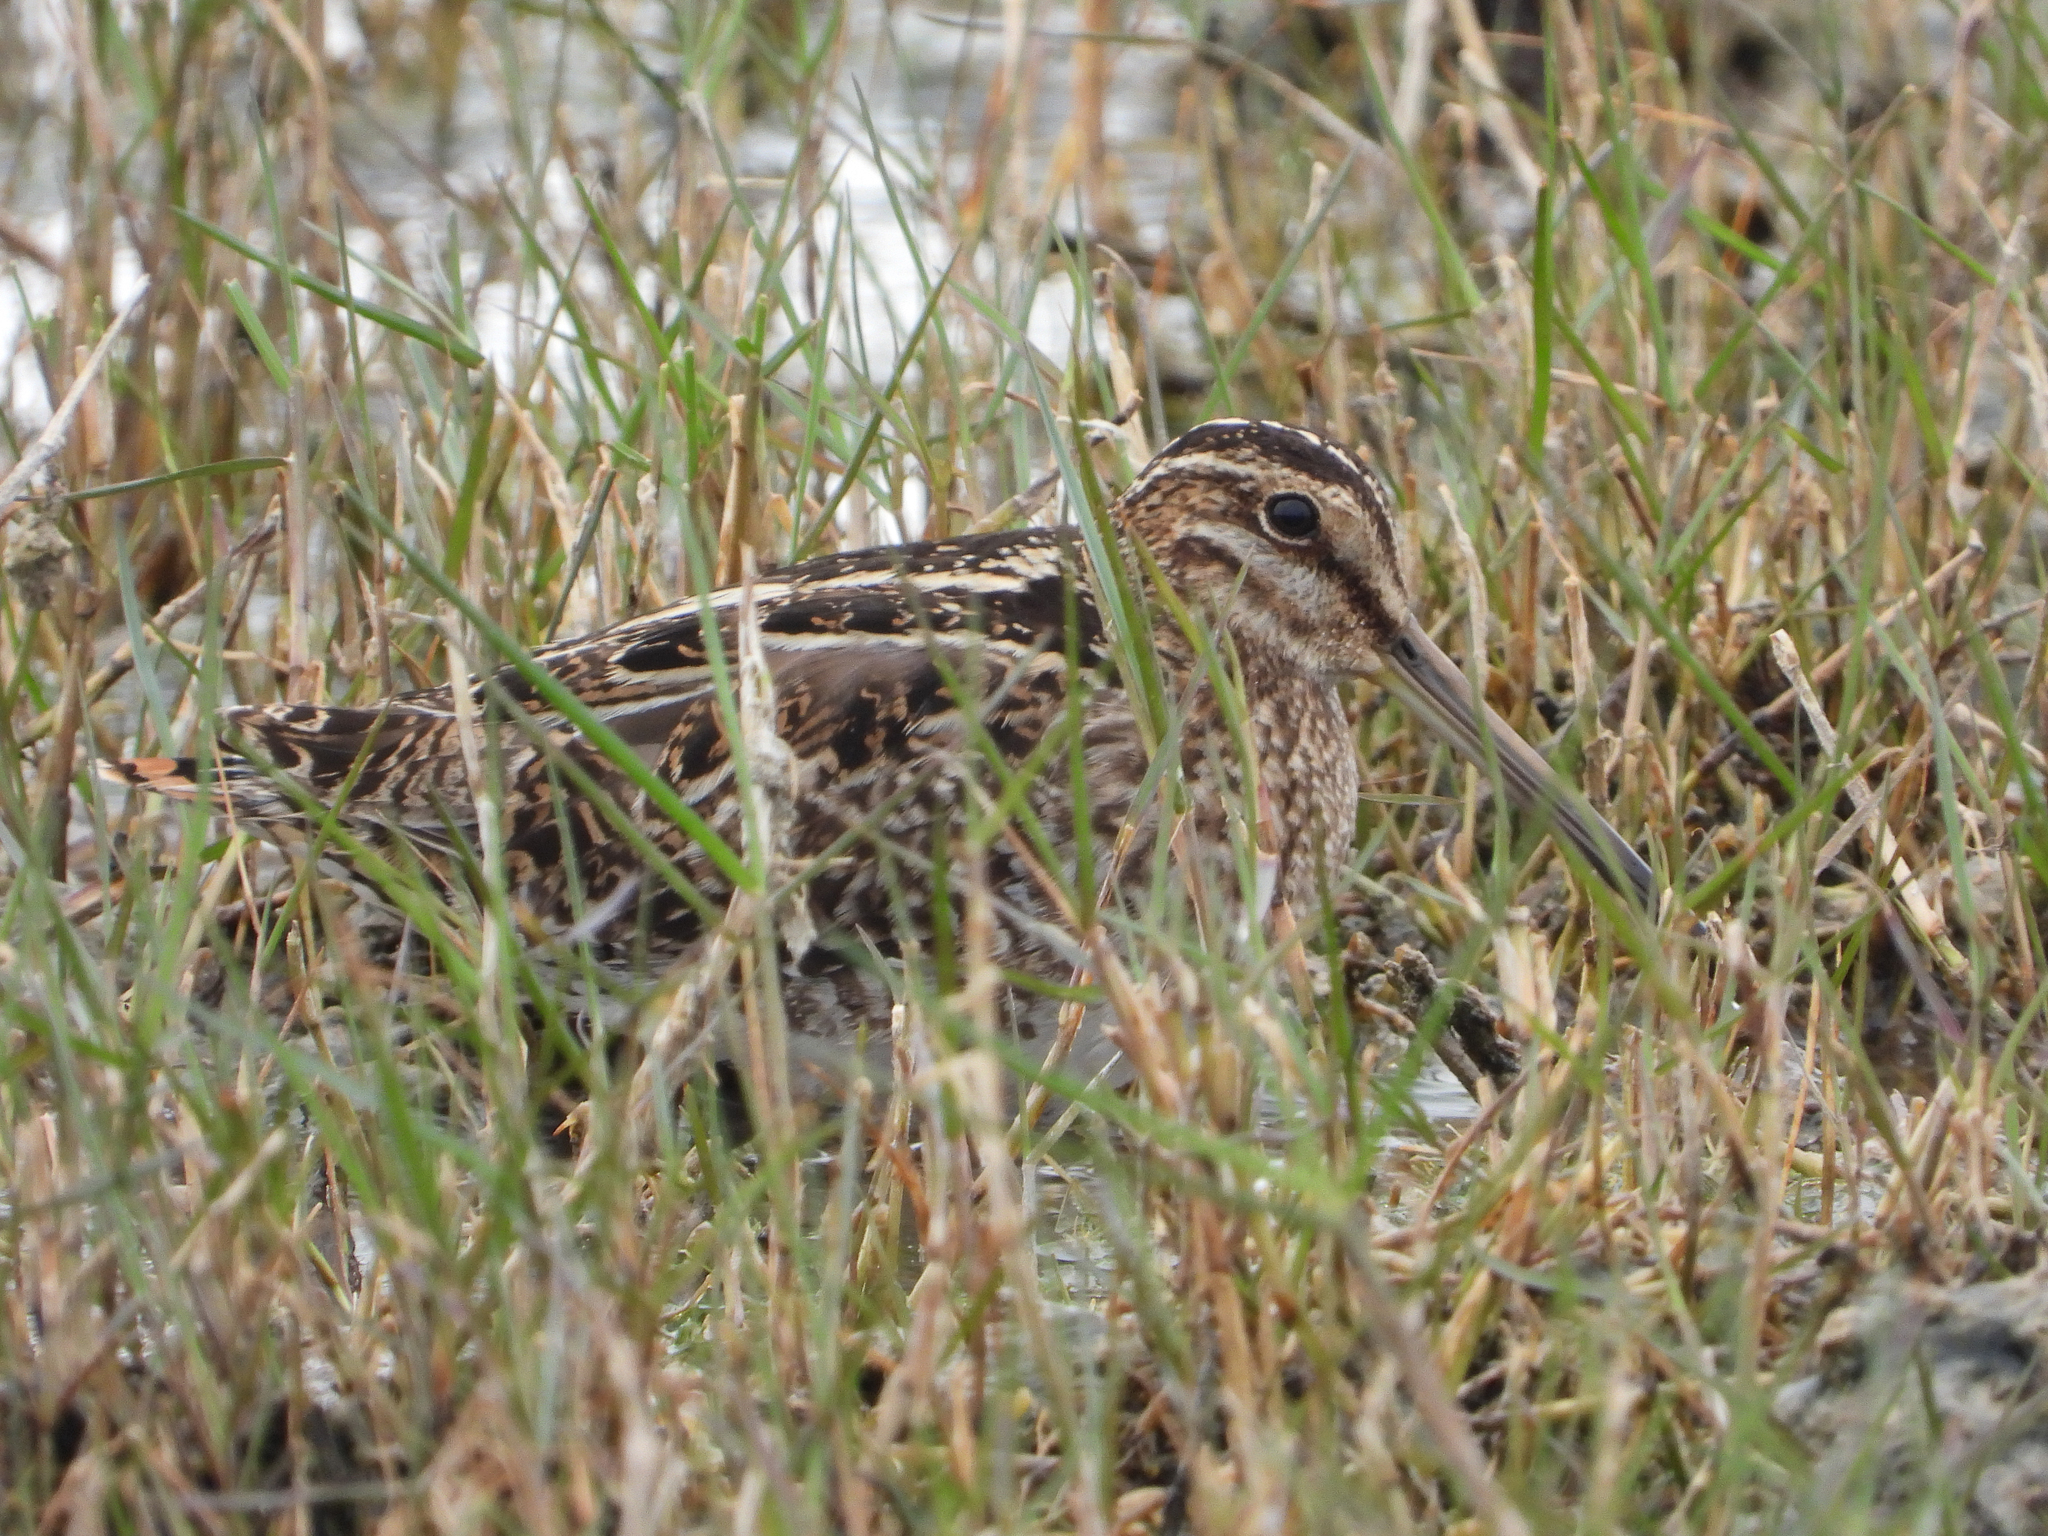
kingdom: Animalia
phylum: Chordata
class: Aves
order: Charadriiformes
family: Scolopacidae
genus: Gallinago
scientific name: Gallinago delicata
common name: Wilson's snipe
